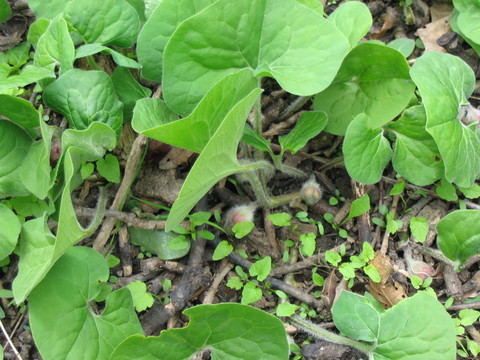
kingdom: Plantae
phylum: Tracheophyta
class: Magnoliopsida
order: Piperales
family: Aristolochiaceae
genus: Asarum
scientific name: Asarum canadense
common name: Wild ginger
